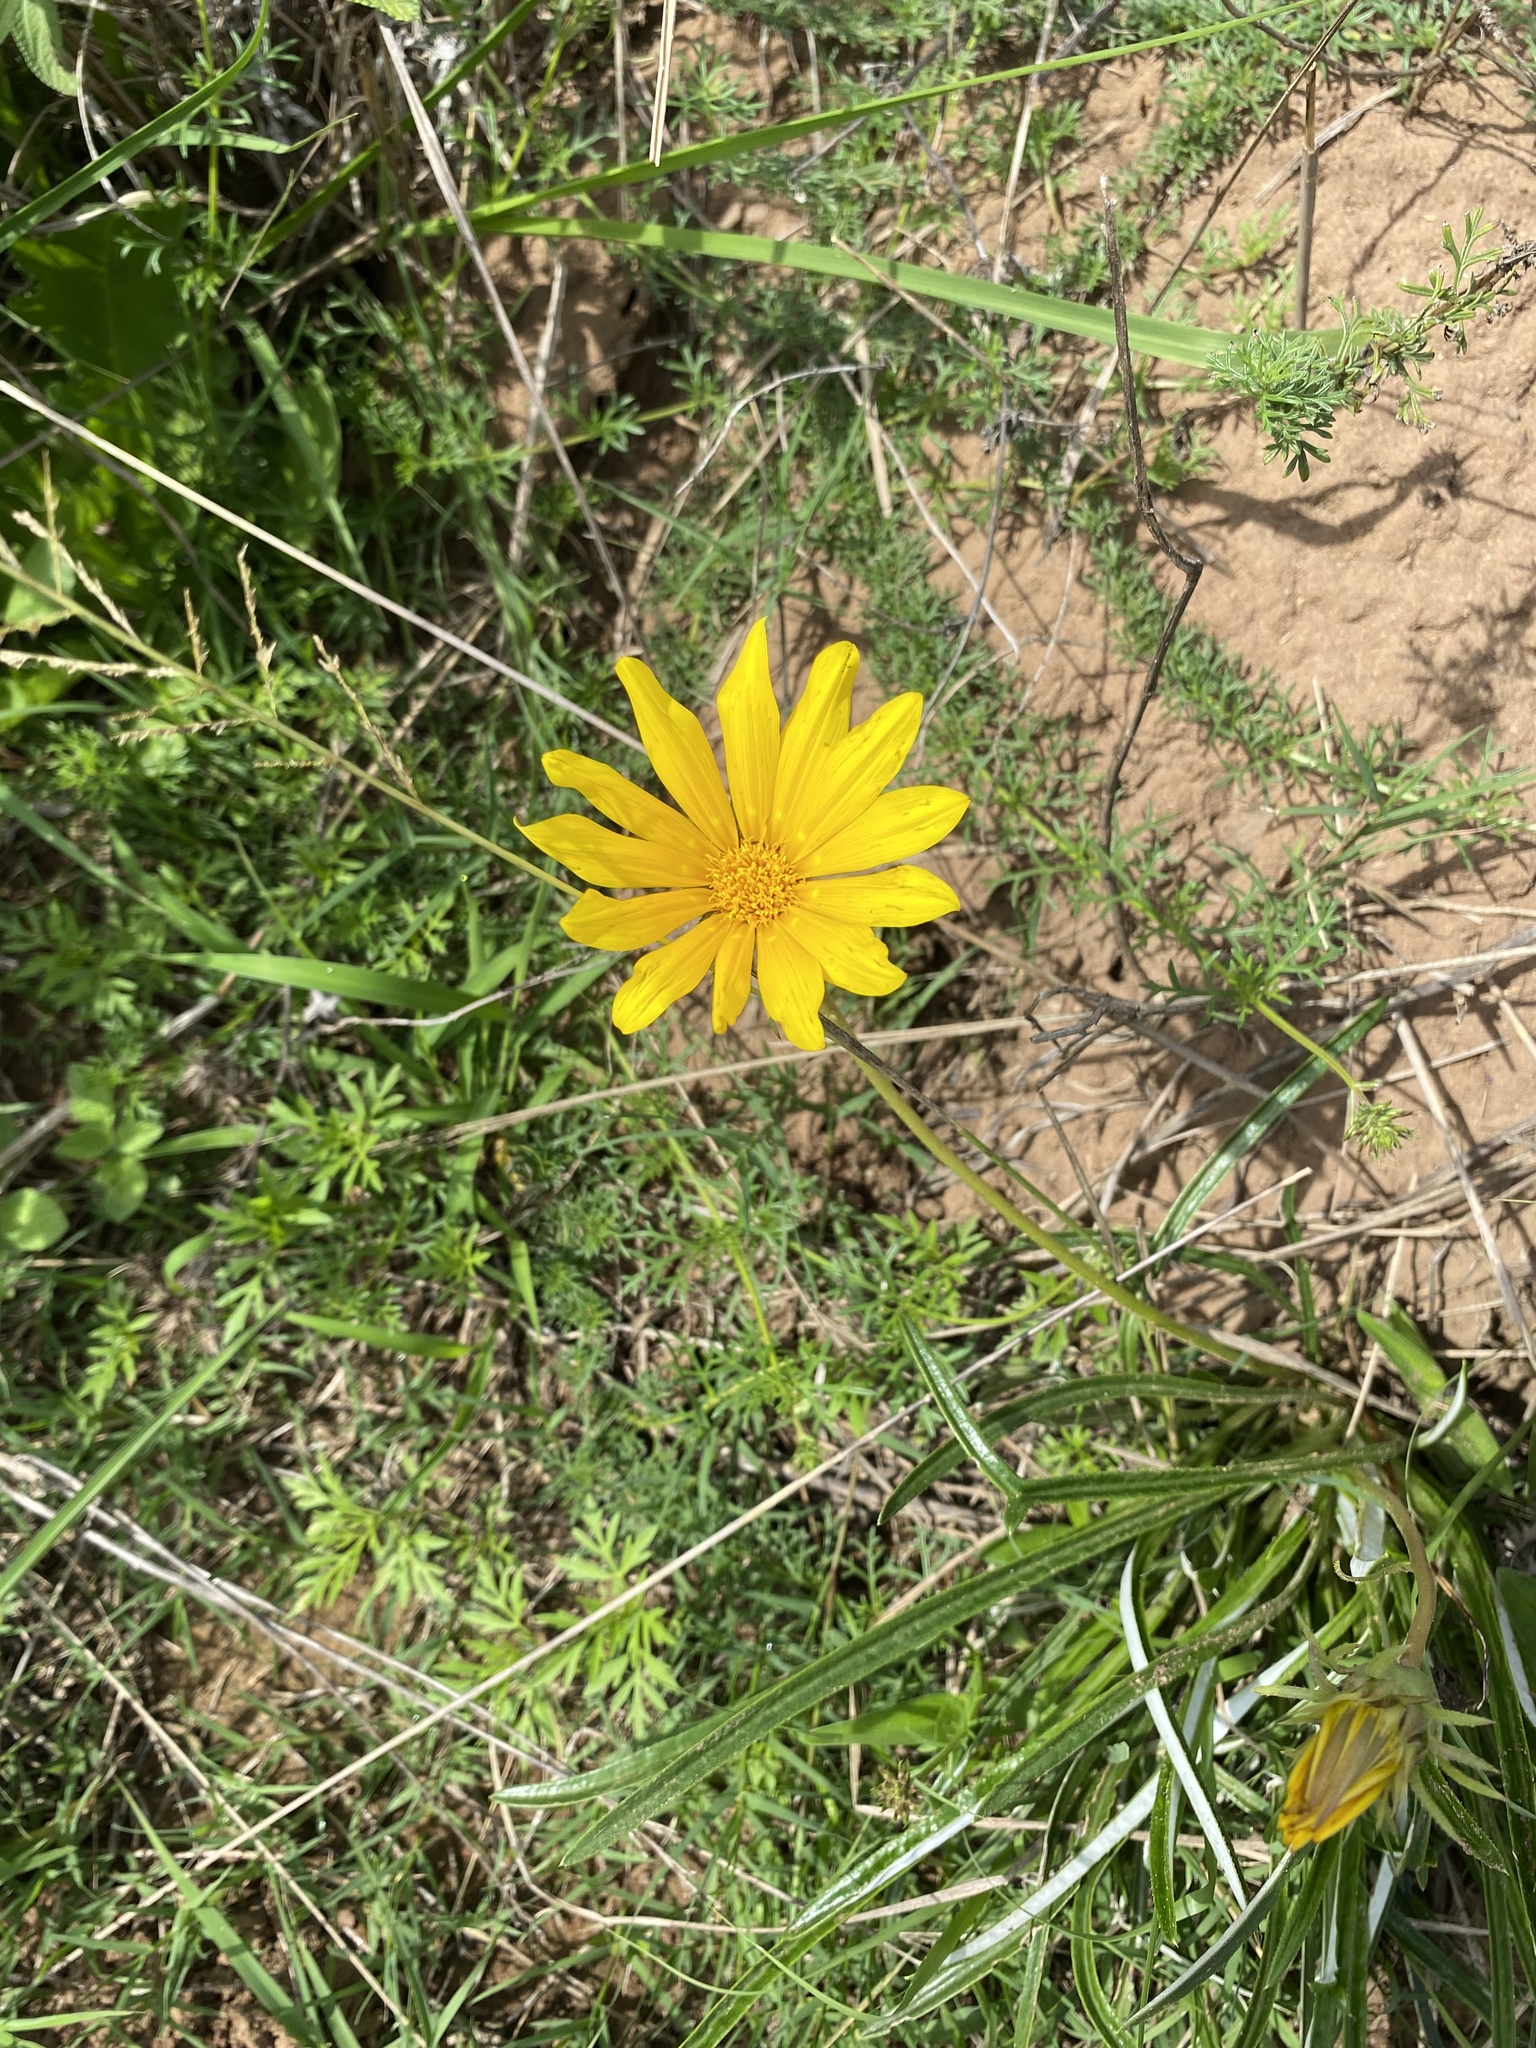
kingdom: Plantae
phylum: Tracheophyta
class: Magnoliopsida
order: Asterales
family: Asteraceae
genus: Gazania
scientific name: Gazania linearis
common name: Treasureflower
